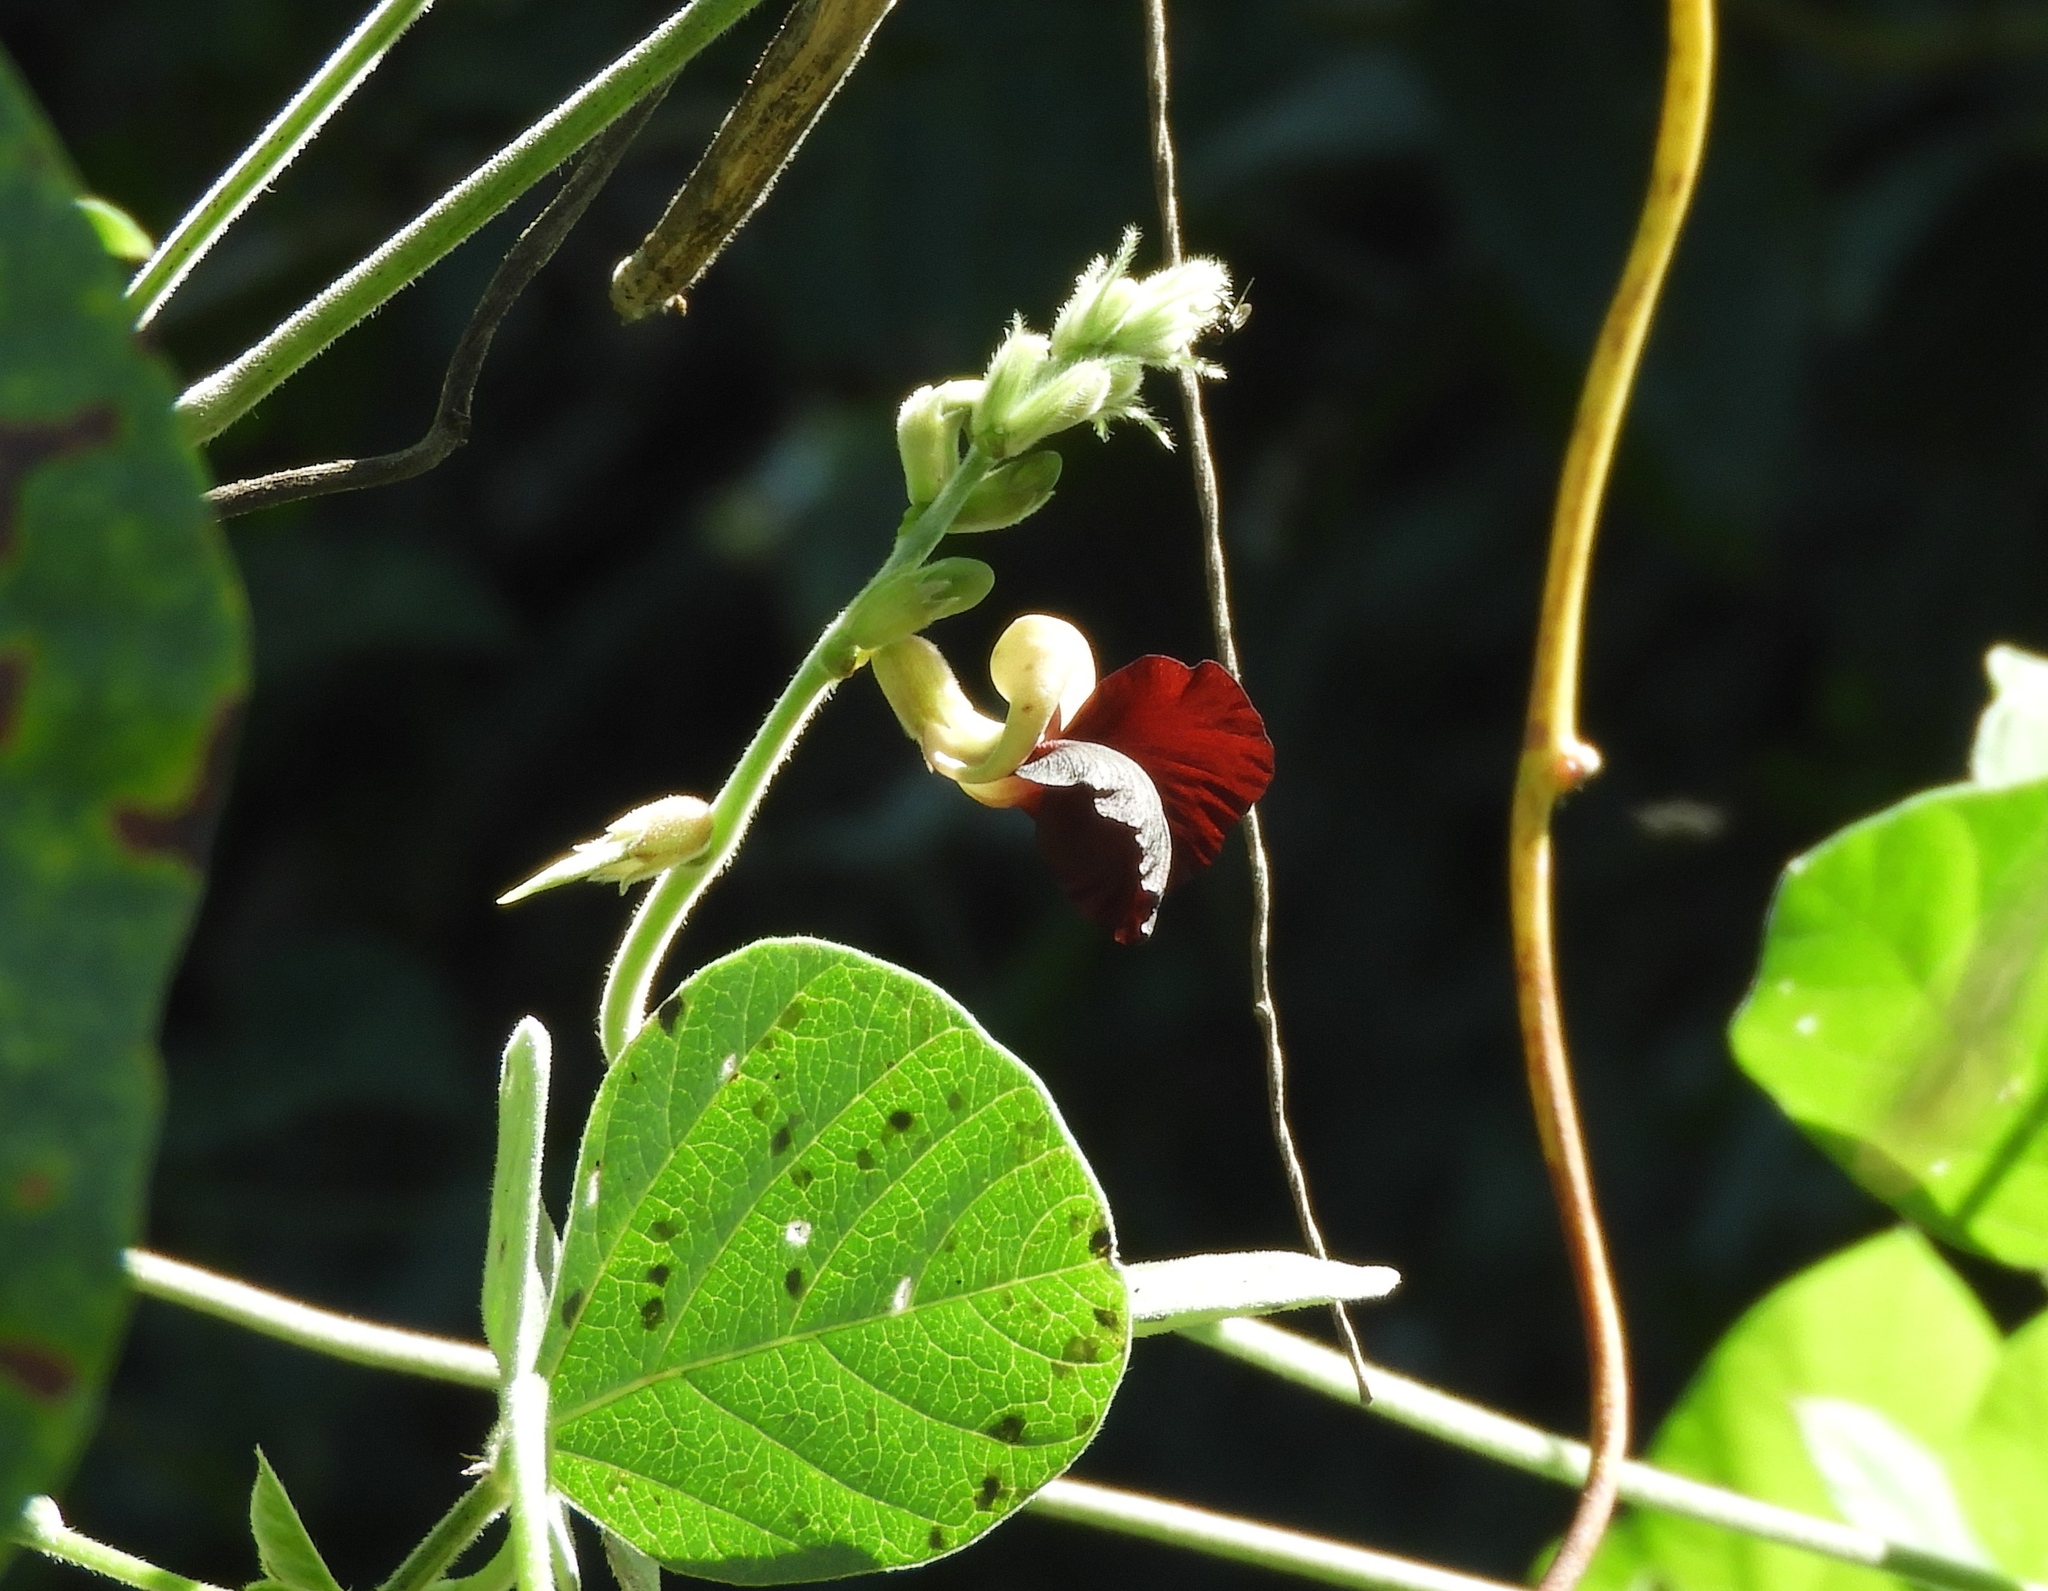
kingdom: Plantae
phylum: Tracheophyta
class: Magnoliopsida
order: Fabales
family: Fabaceae
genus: Macroptilium
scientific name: Macroptilium atropurpureum
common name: Purple bushbean
